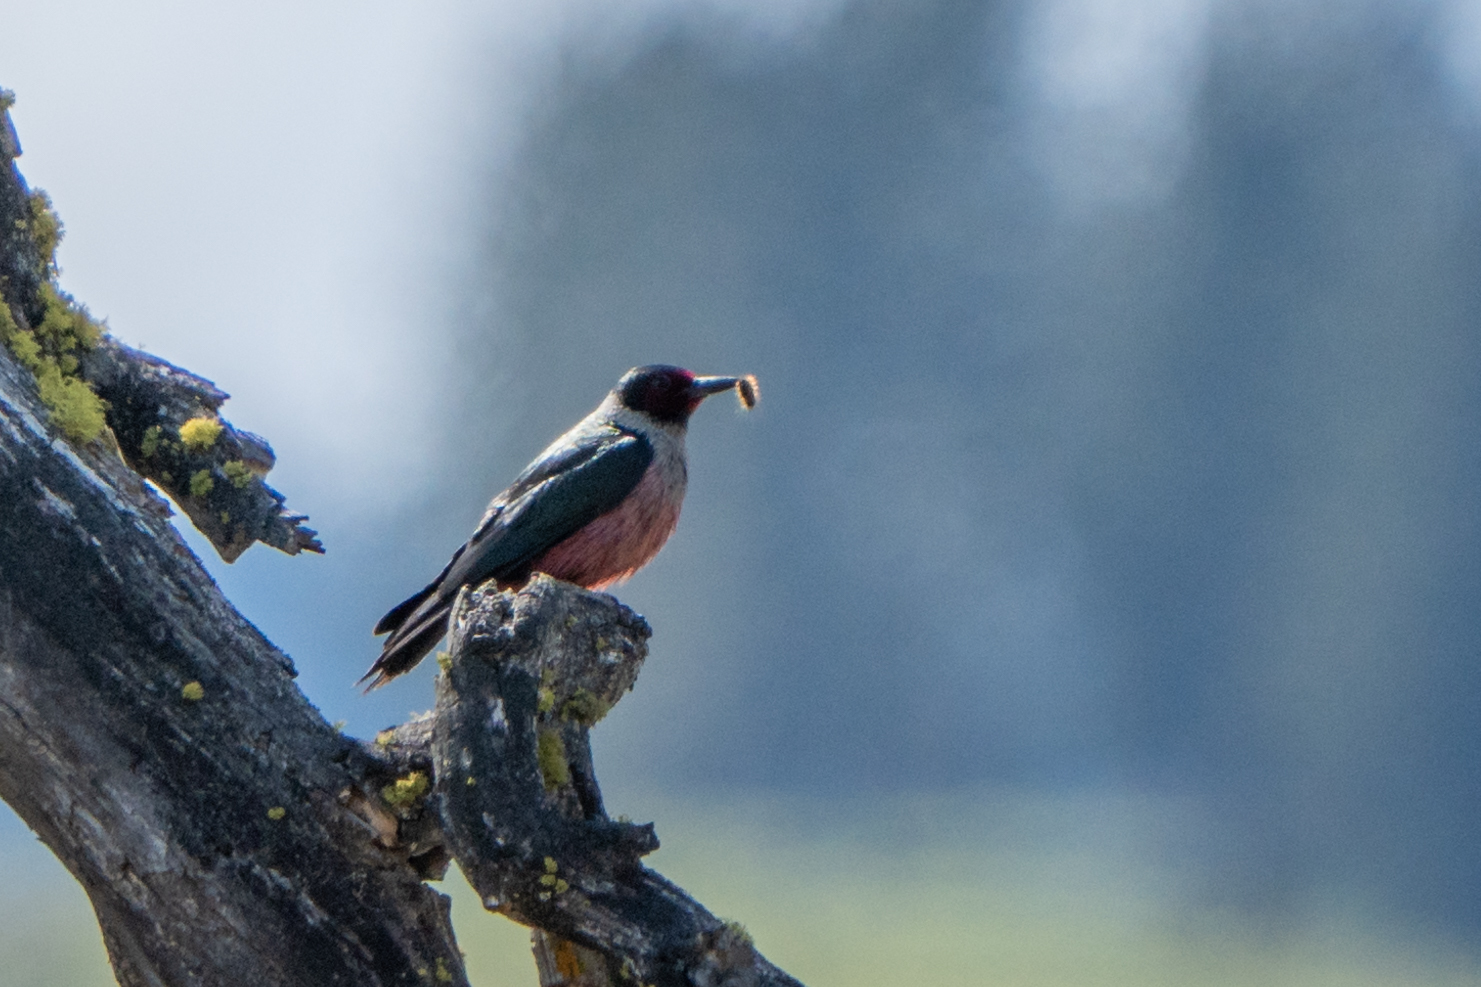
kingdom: Animalia
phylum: Chordata
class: Aves
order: Piciformes
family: Picidae
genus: Melanerpes
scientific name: Melanerpes lewis
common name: Lewis's woodpecker
